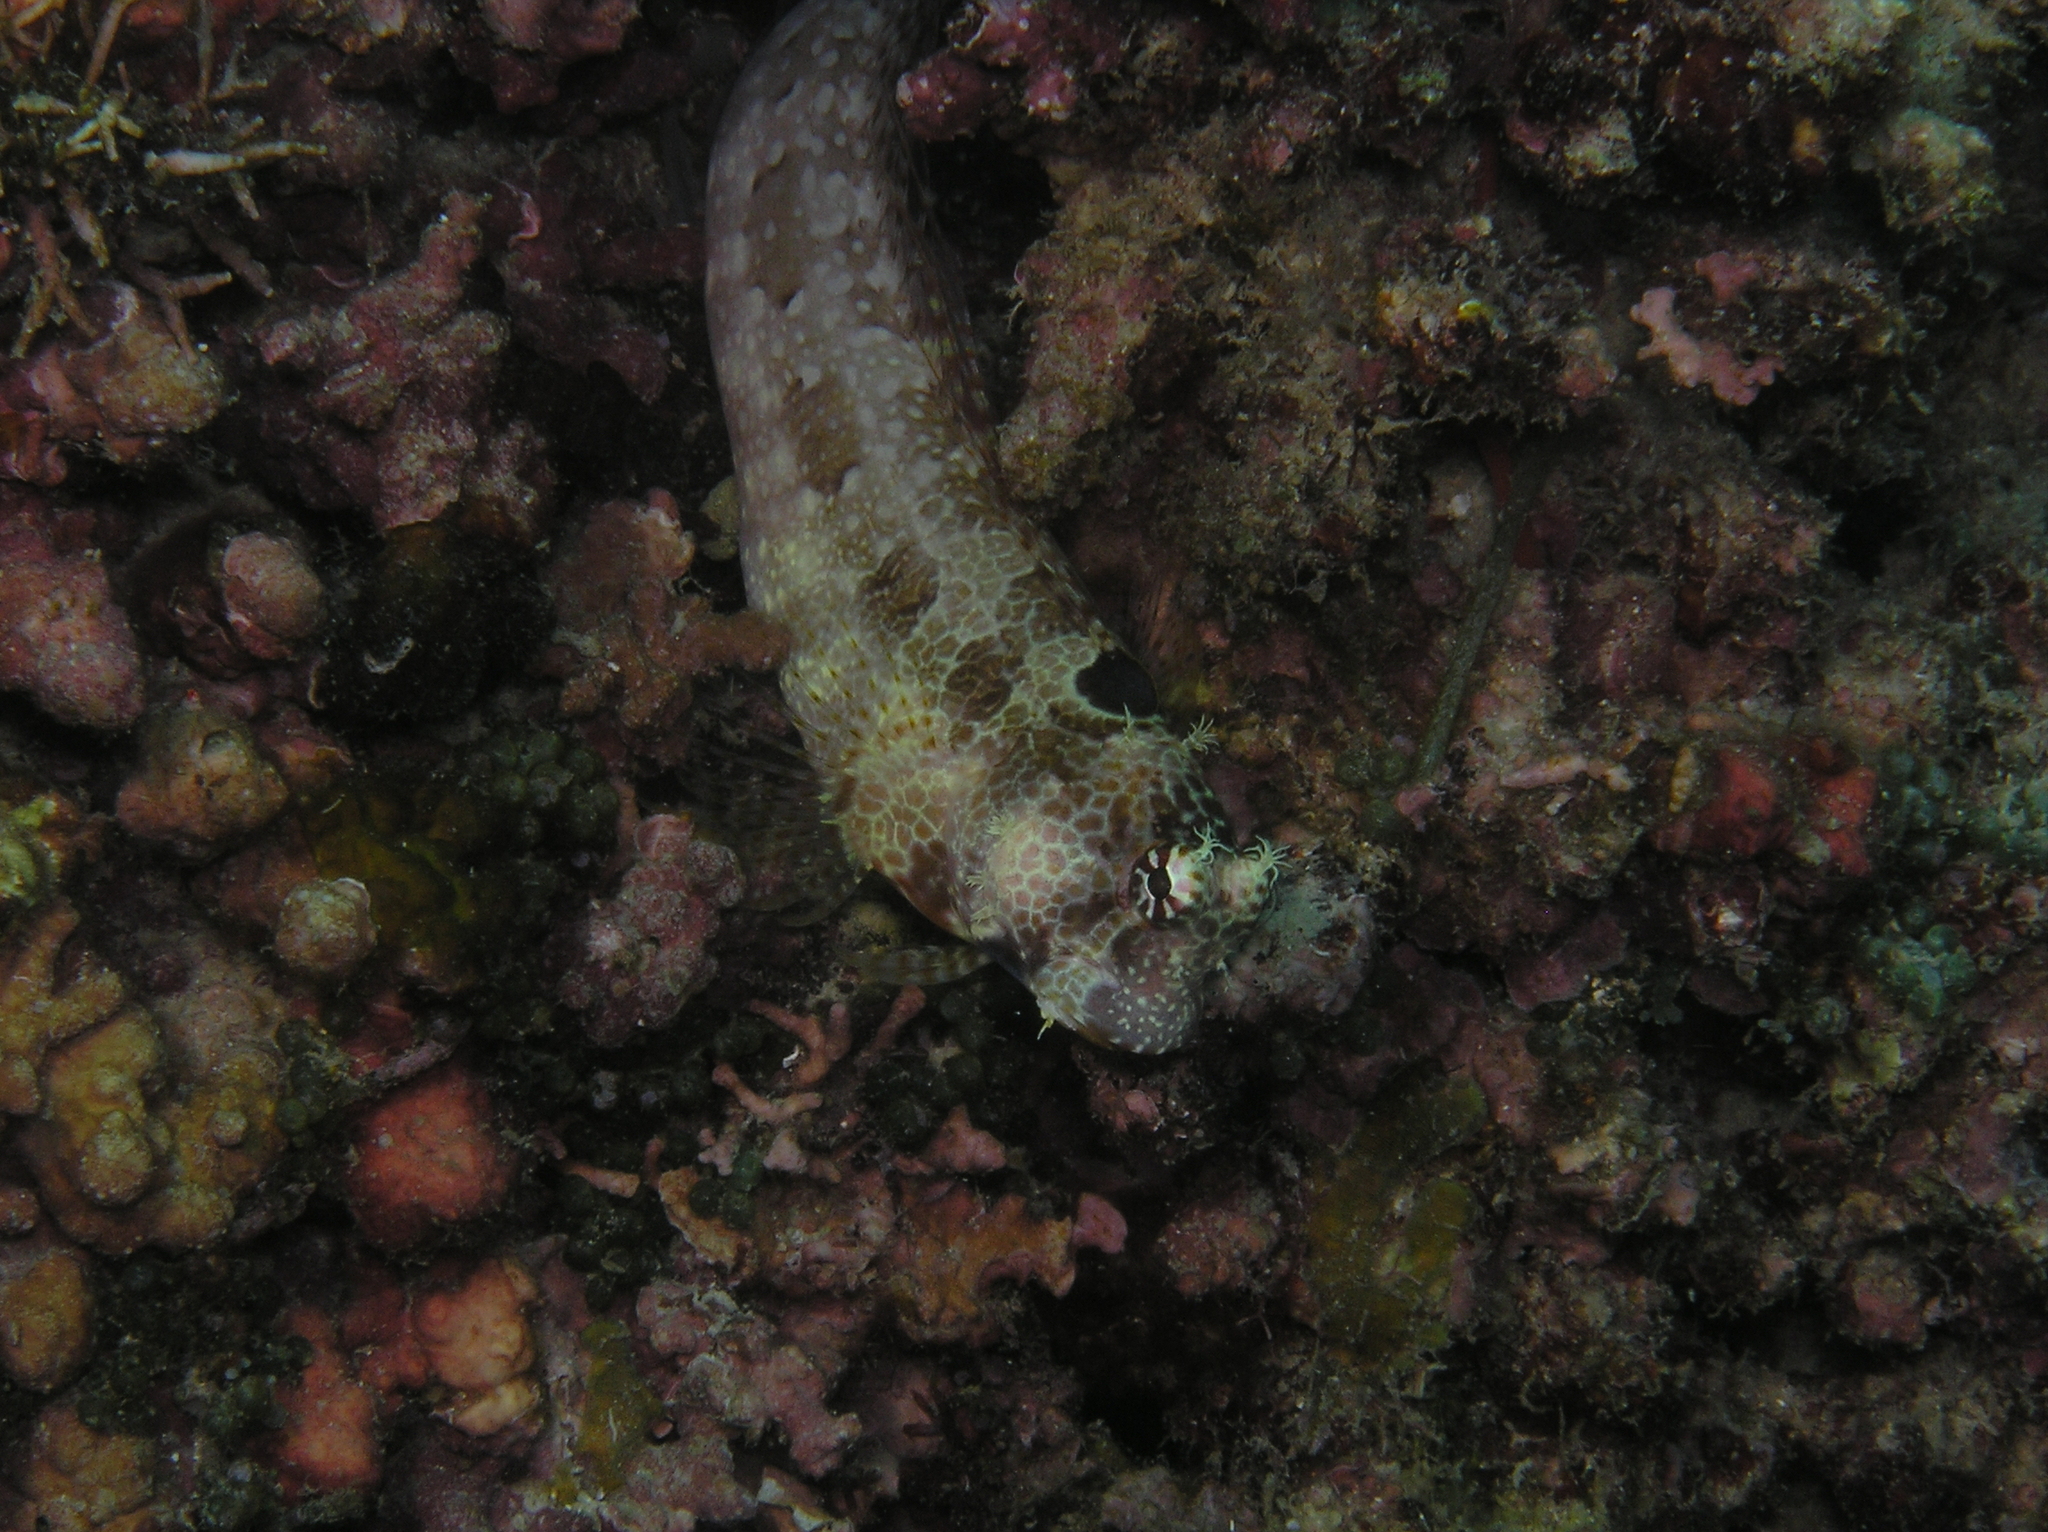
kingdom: Animalia
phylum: Chordata
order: Perciformes
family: Blenniidae
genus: Crossosalarias
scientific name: Crossosalarias macrospilus
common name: Triplespot blenny
